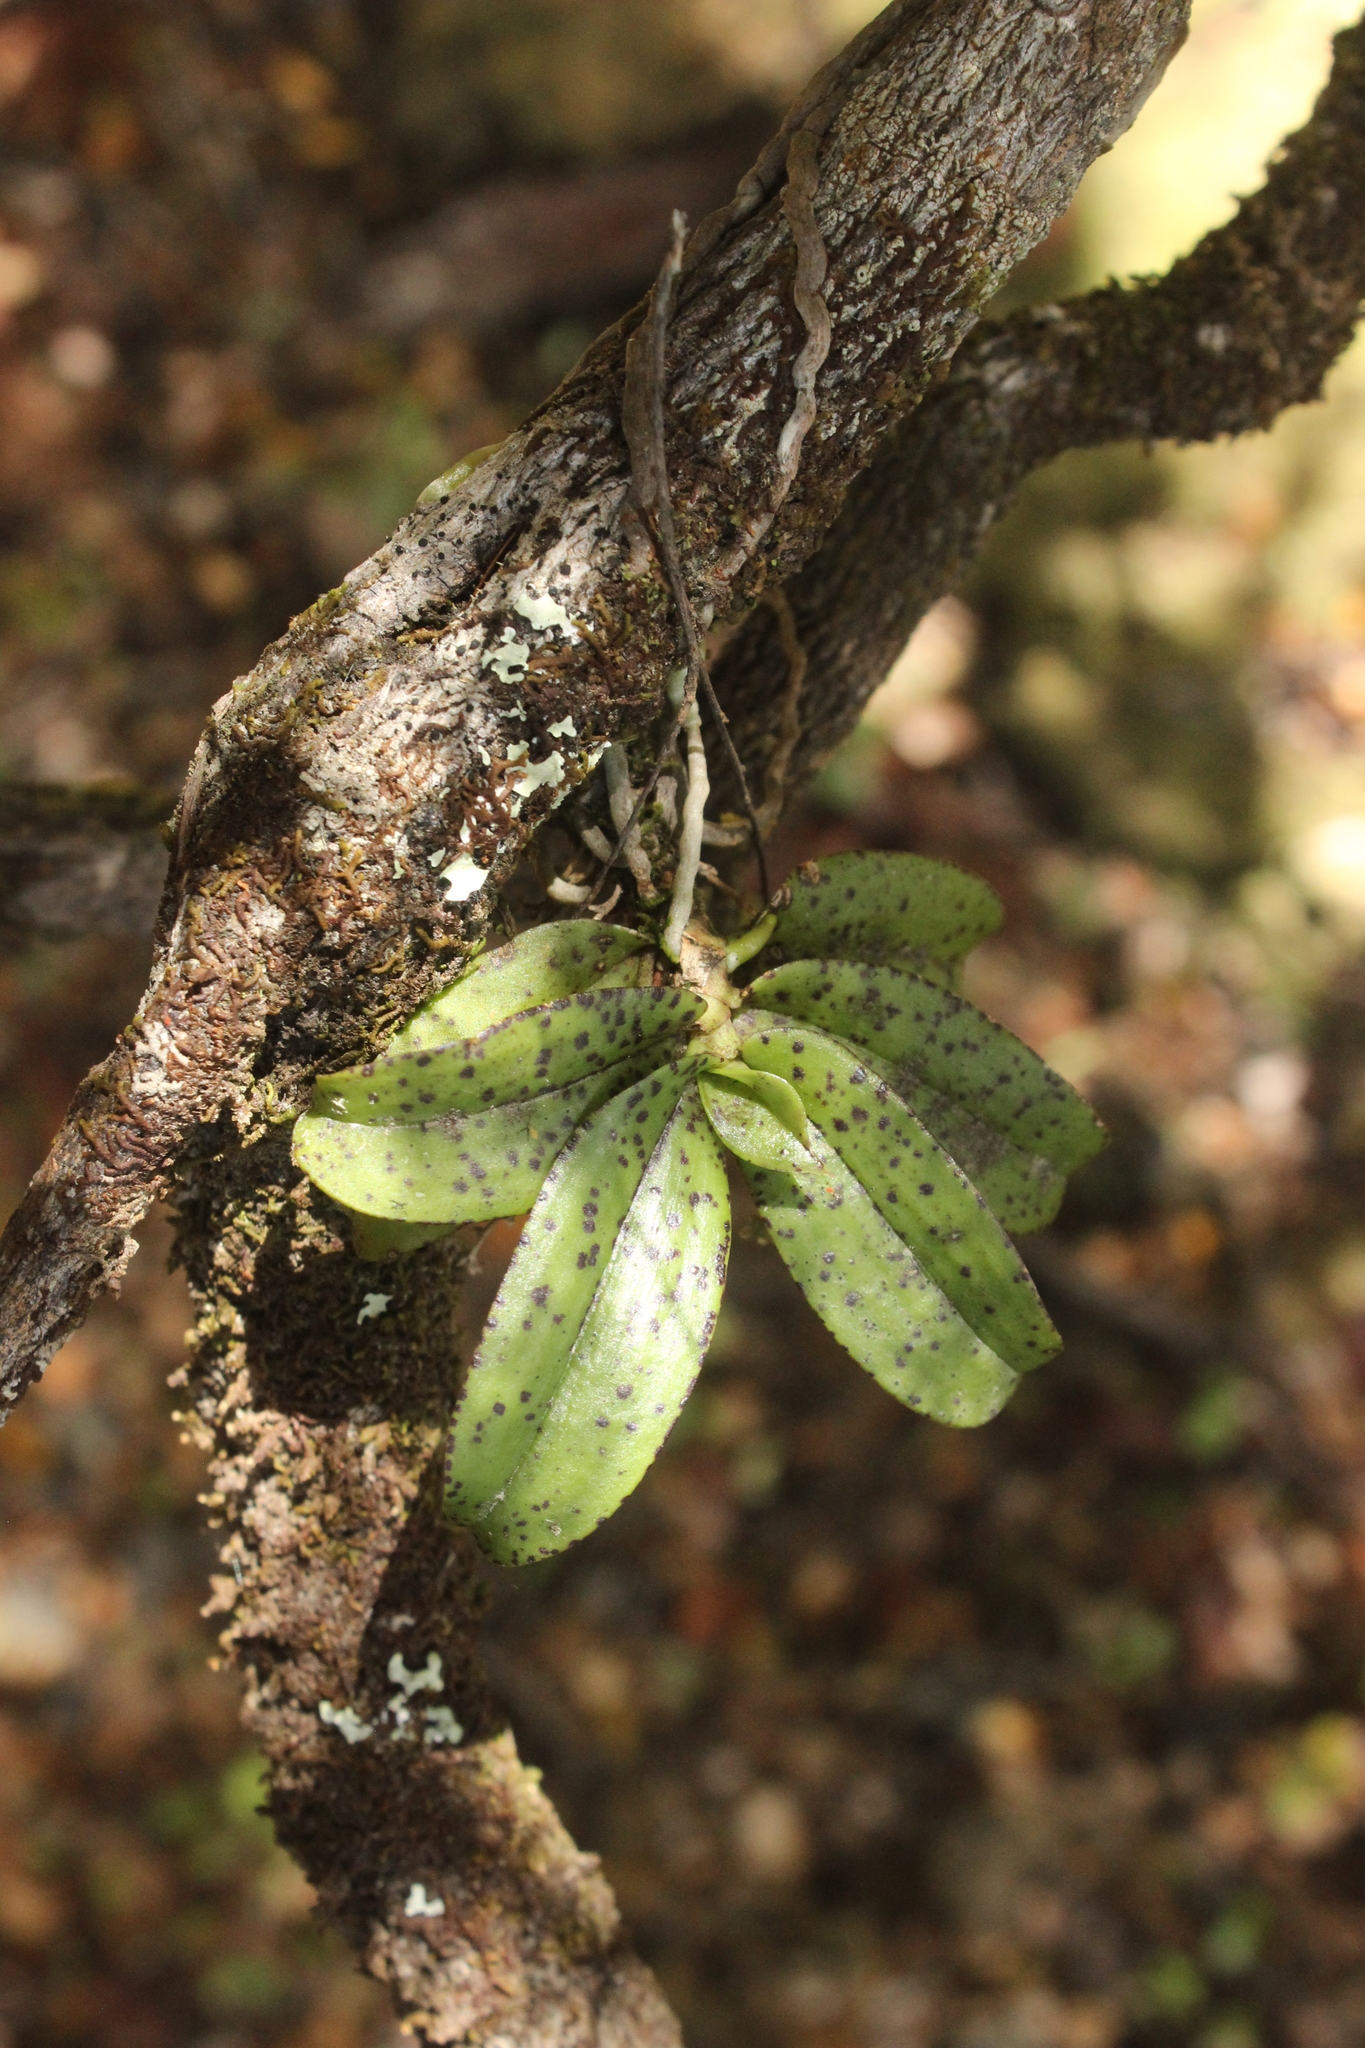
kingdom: Plantae
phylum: Tracheophyta
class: Liliopsida
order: Asparagales
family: Orchidaceae
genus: Drymoanthus
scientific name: Drymoanthus flavus
